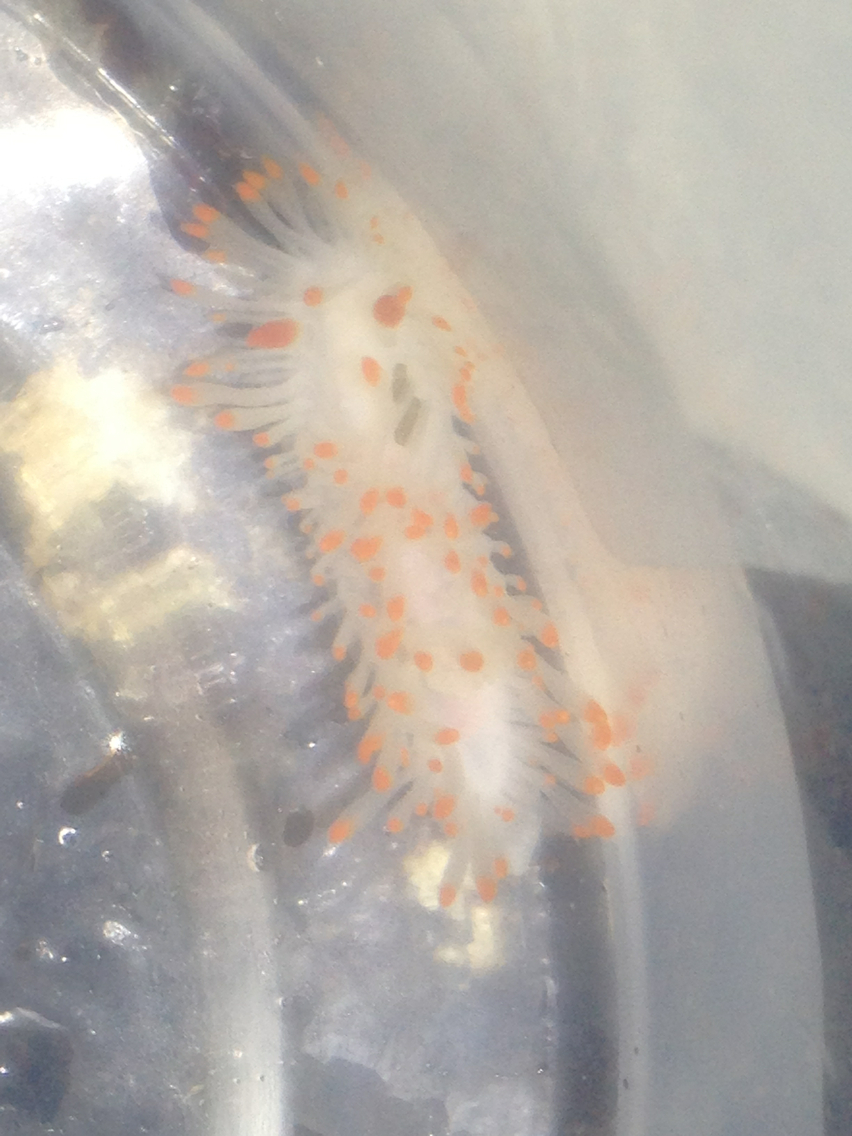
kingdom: Animalia
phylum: Mollusca
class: Gastropoda
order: Nudibranchia
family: Polyceridae
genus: Limacia
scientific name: Limacia cockerelli
